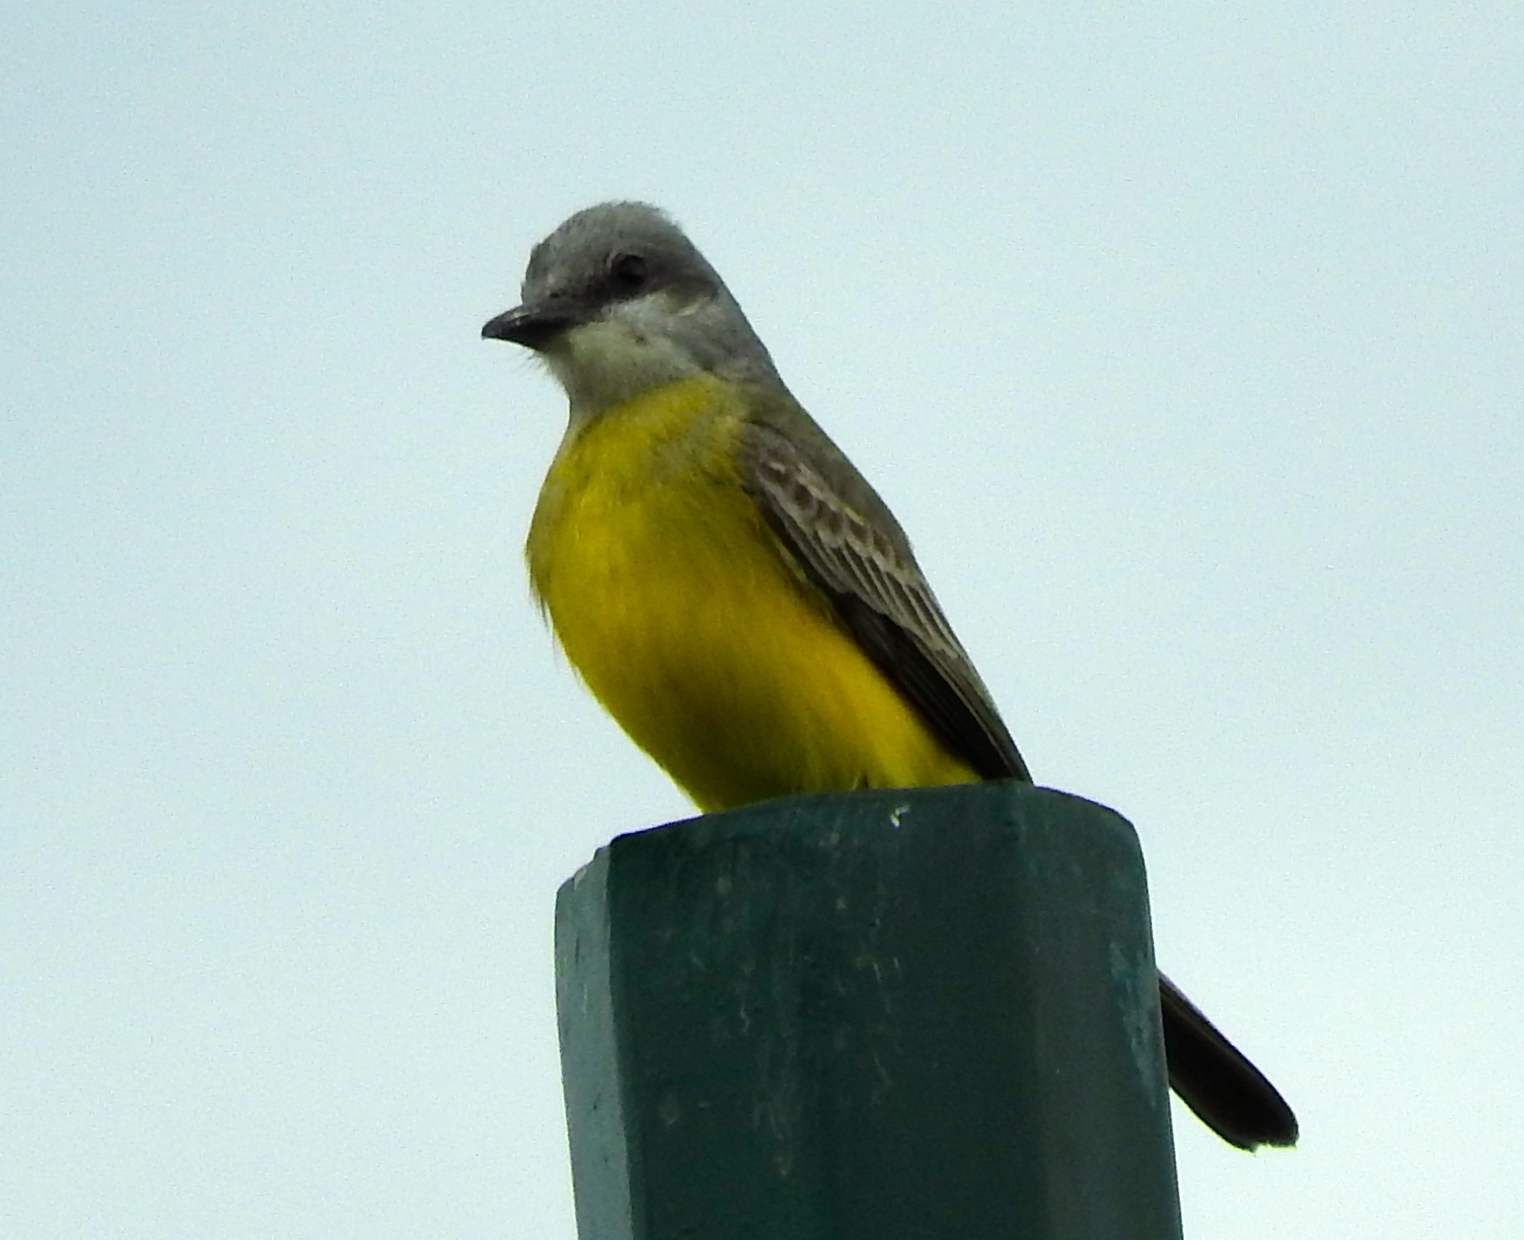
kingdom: Animalia
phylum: Chordata
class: Aves
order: Passeriformes
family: Tyrannidae
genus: Tyrannus
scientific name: Tyrannus melancholicus
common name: Tropical kingbird
